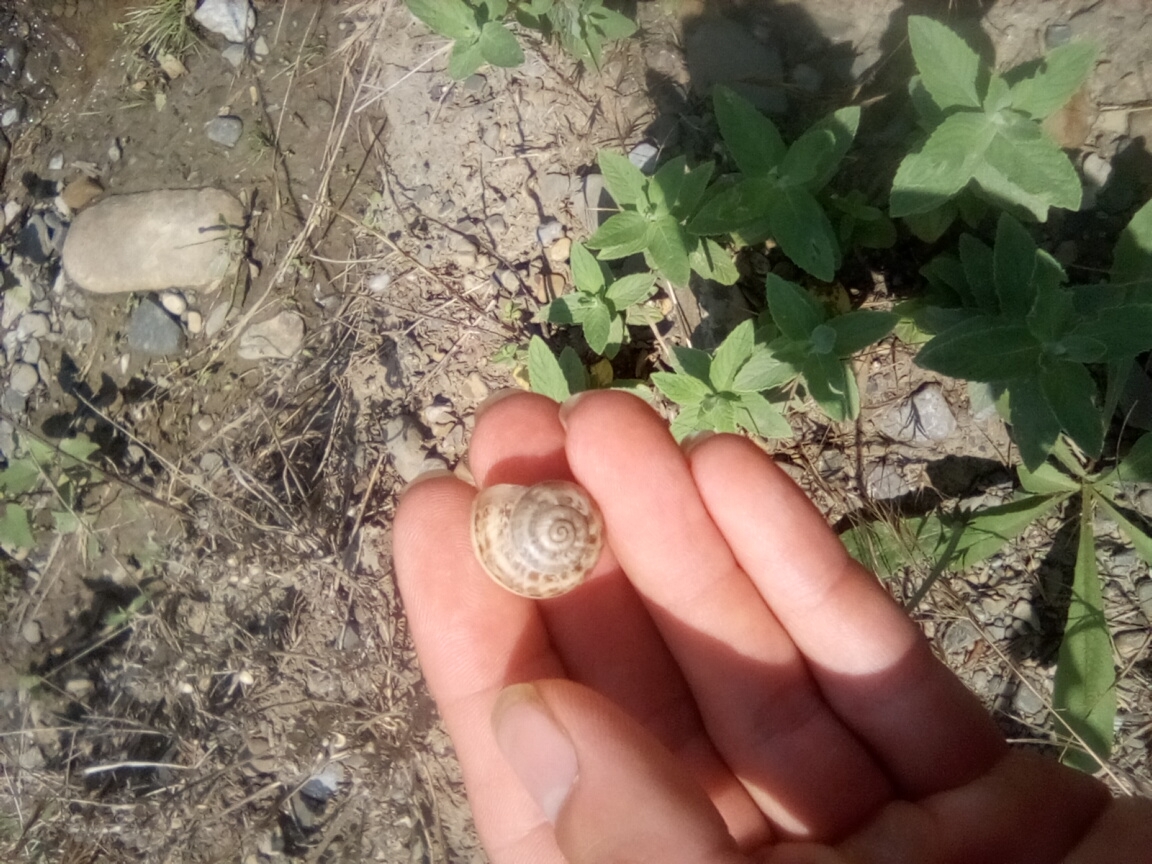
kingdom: Animalia
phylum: Mollusca
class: Gastropoda
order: Stylommatophora
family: Helicidae
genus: Eobania
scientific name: Eobania vermiculata
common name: Chocolateband snail
